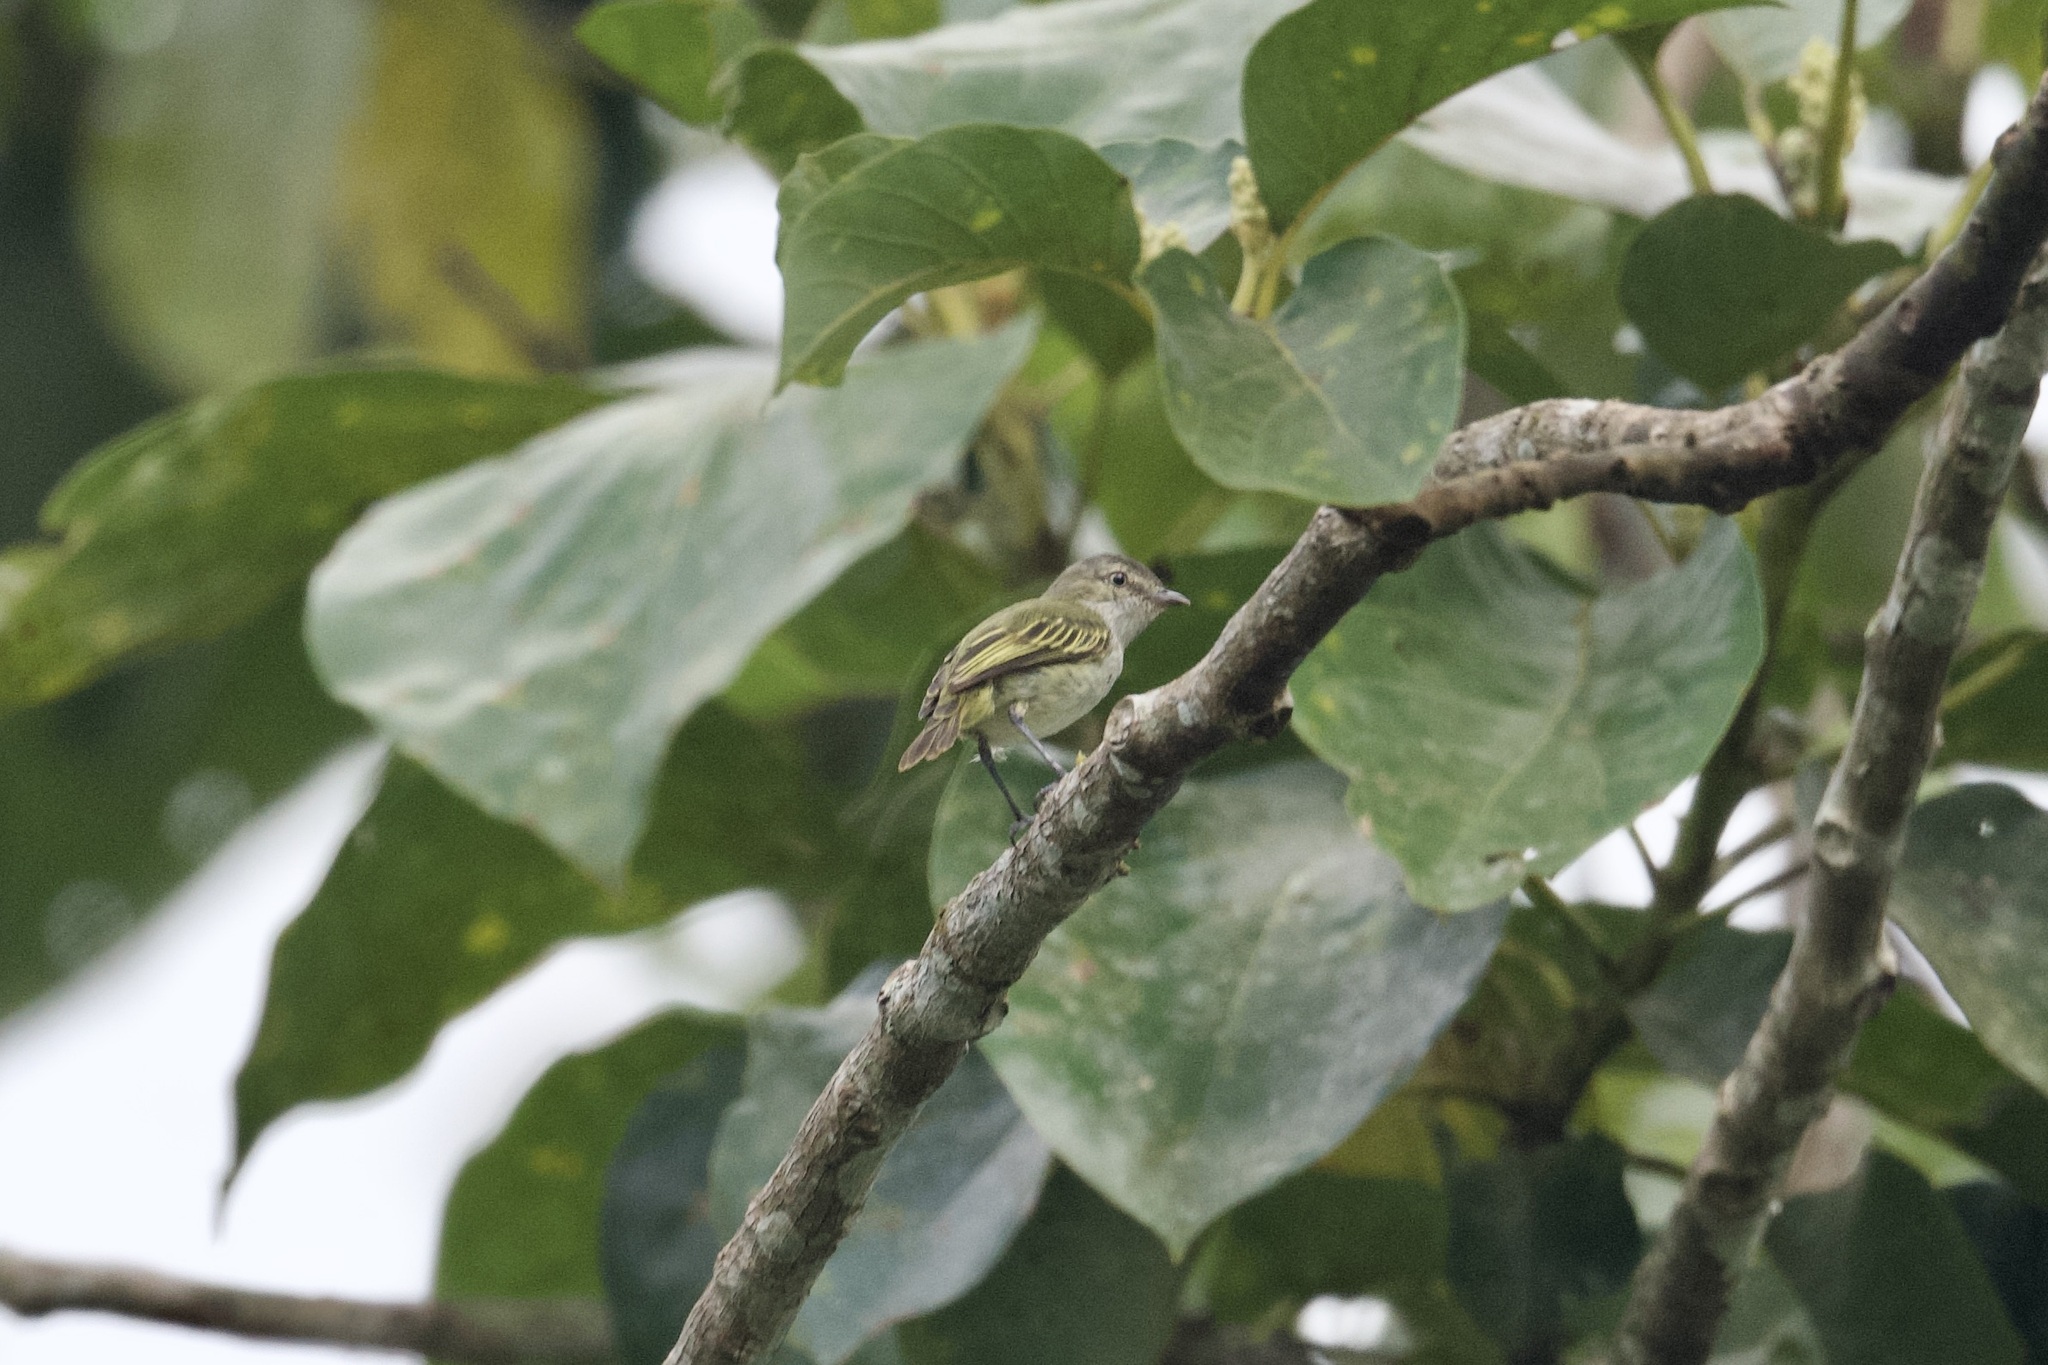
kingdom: Animalia
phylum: Chordata
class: Aves
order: Passeriformes
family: Tyrannidae
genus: Zimmerius
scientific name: Zimmerius vilissimus
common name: Paltry tyrannulet
